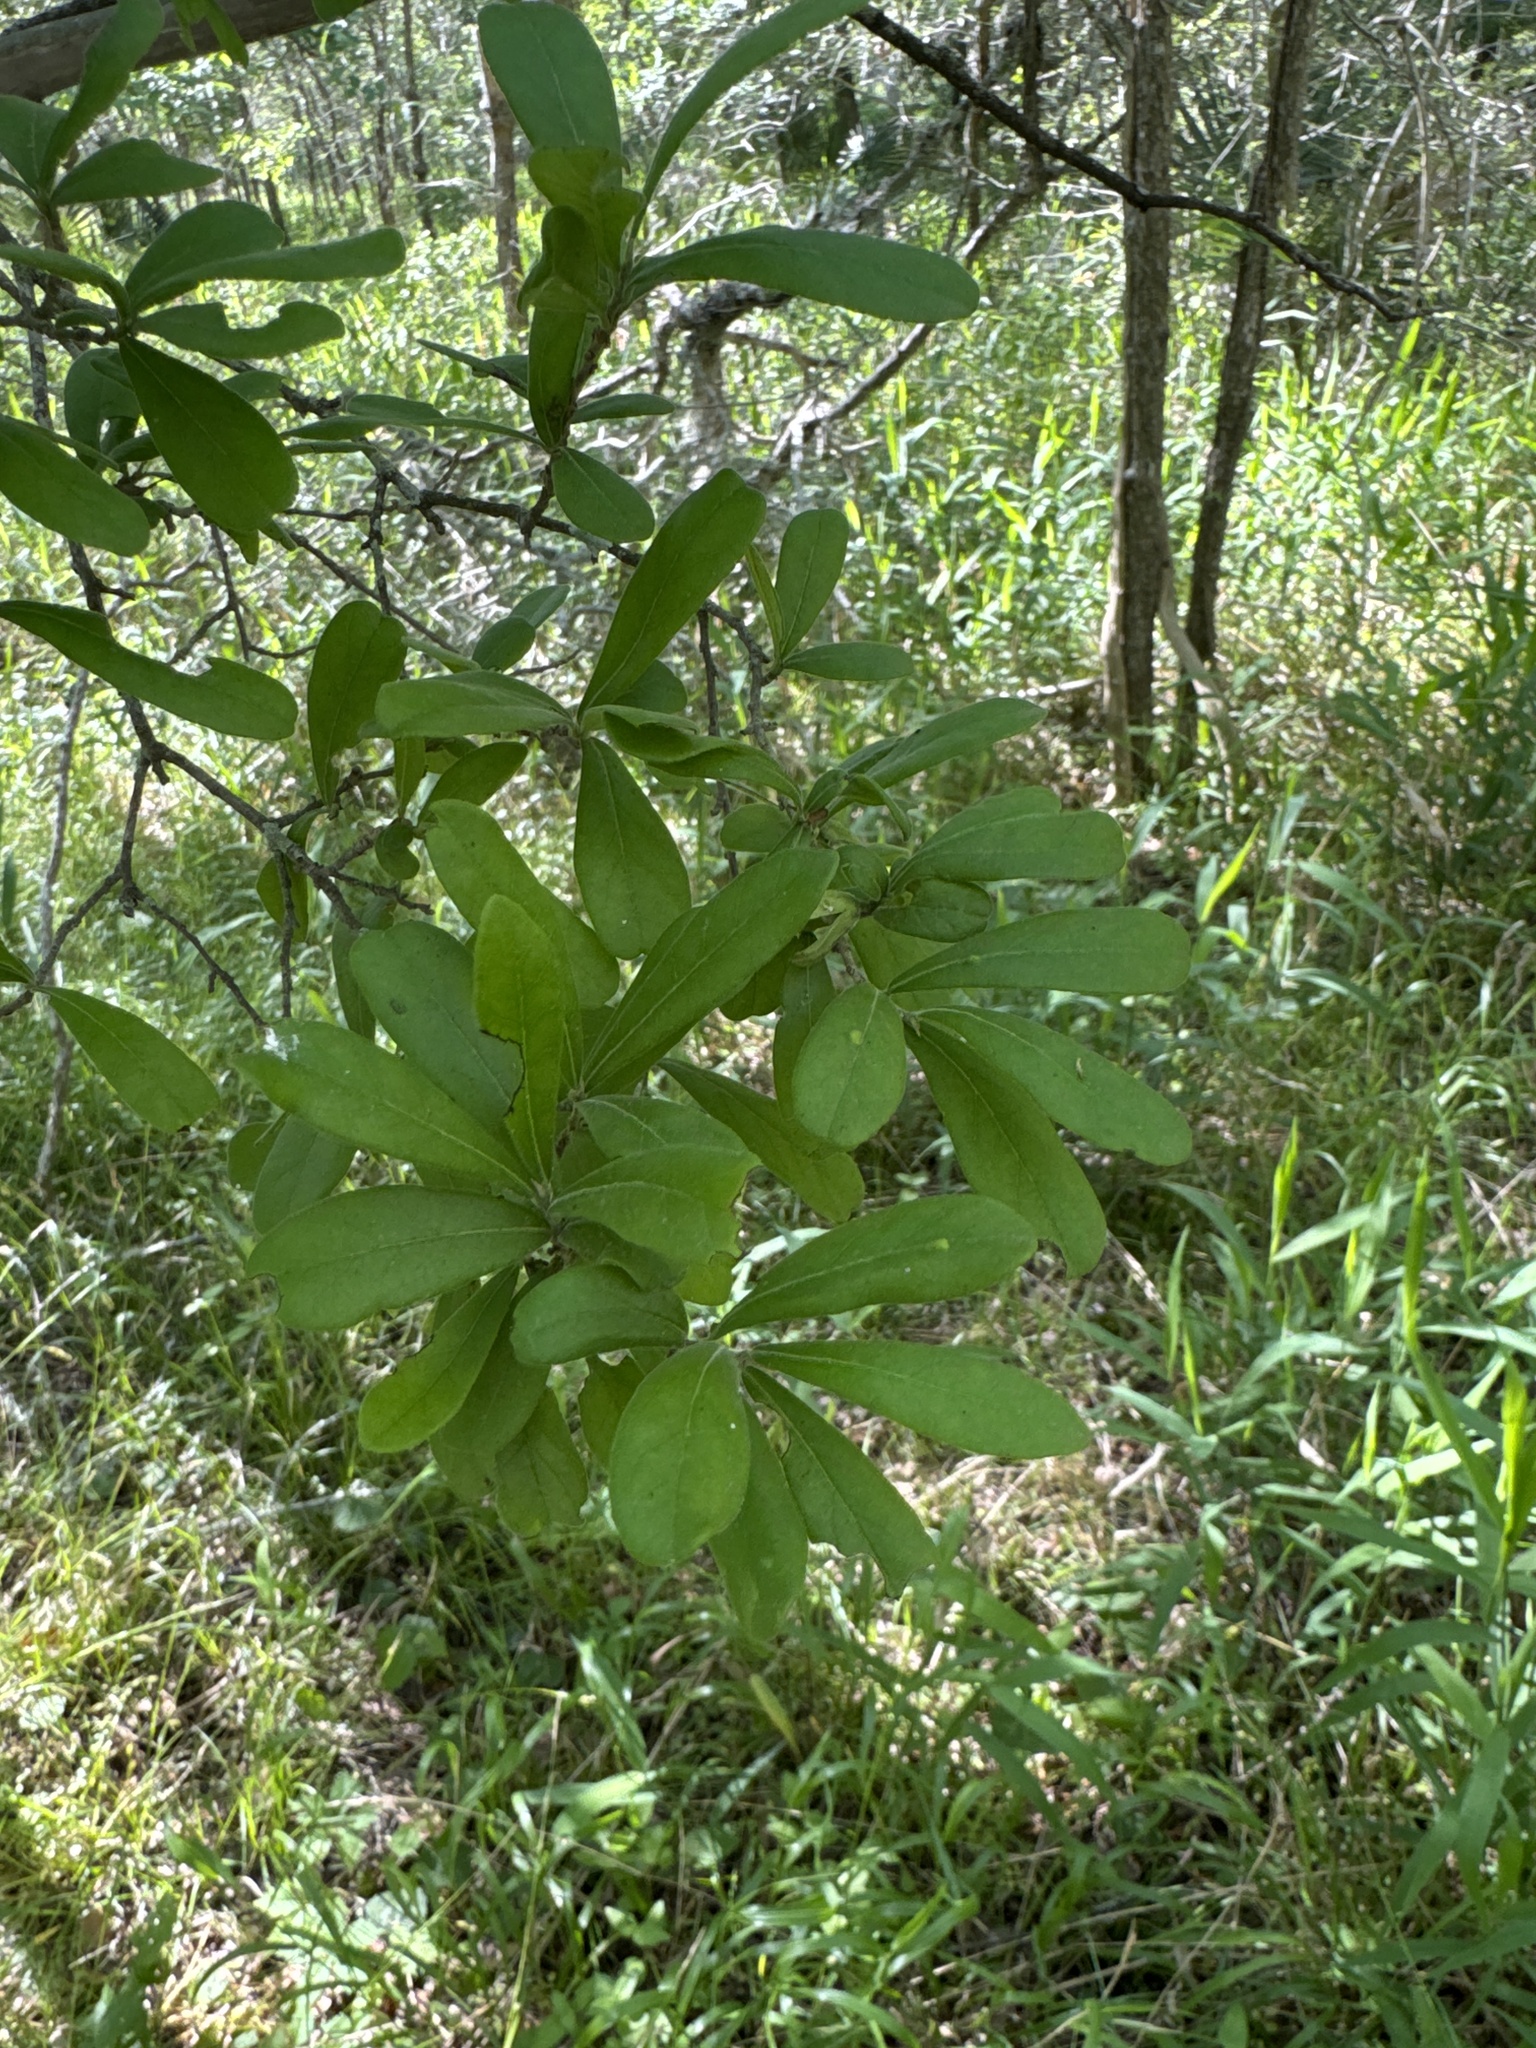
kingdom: Plantae
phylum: Tracheophyta
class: Magnoliopsida
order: Ericales
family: Ebenaceae
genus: Diospyros
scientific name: Diospyros texana
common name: Texas persimmon
